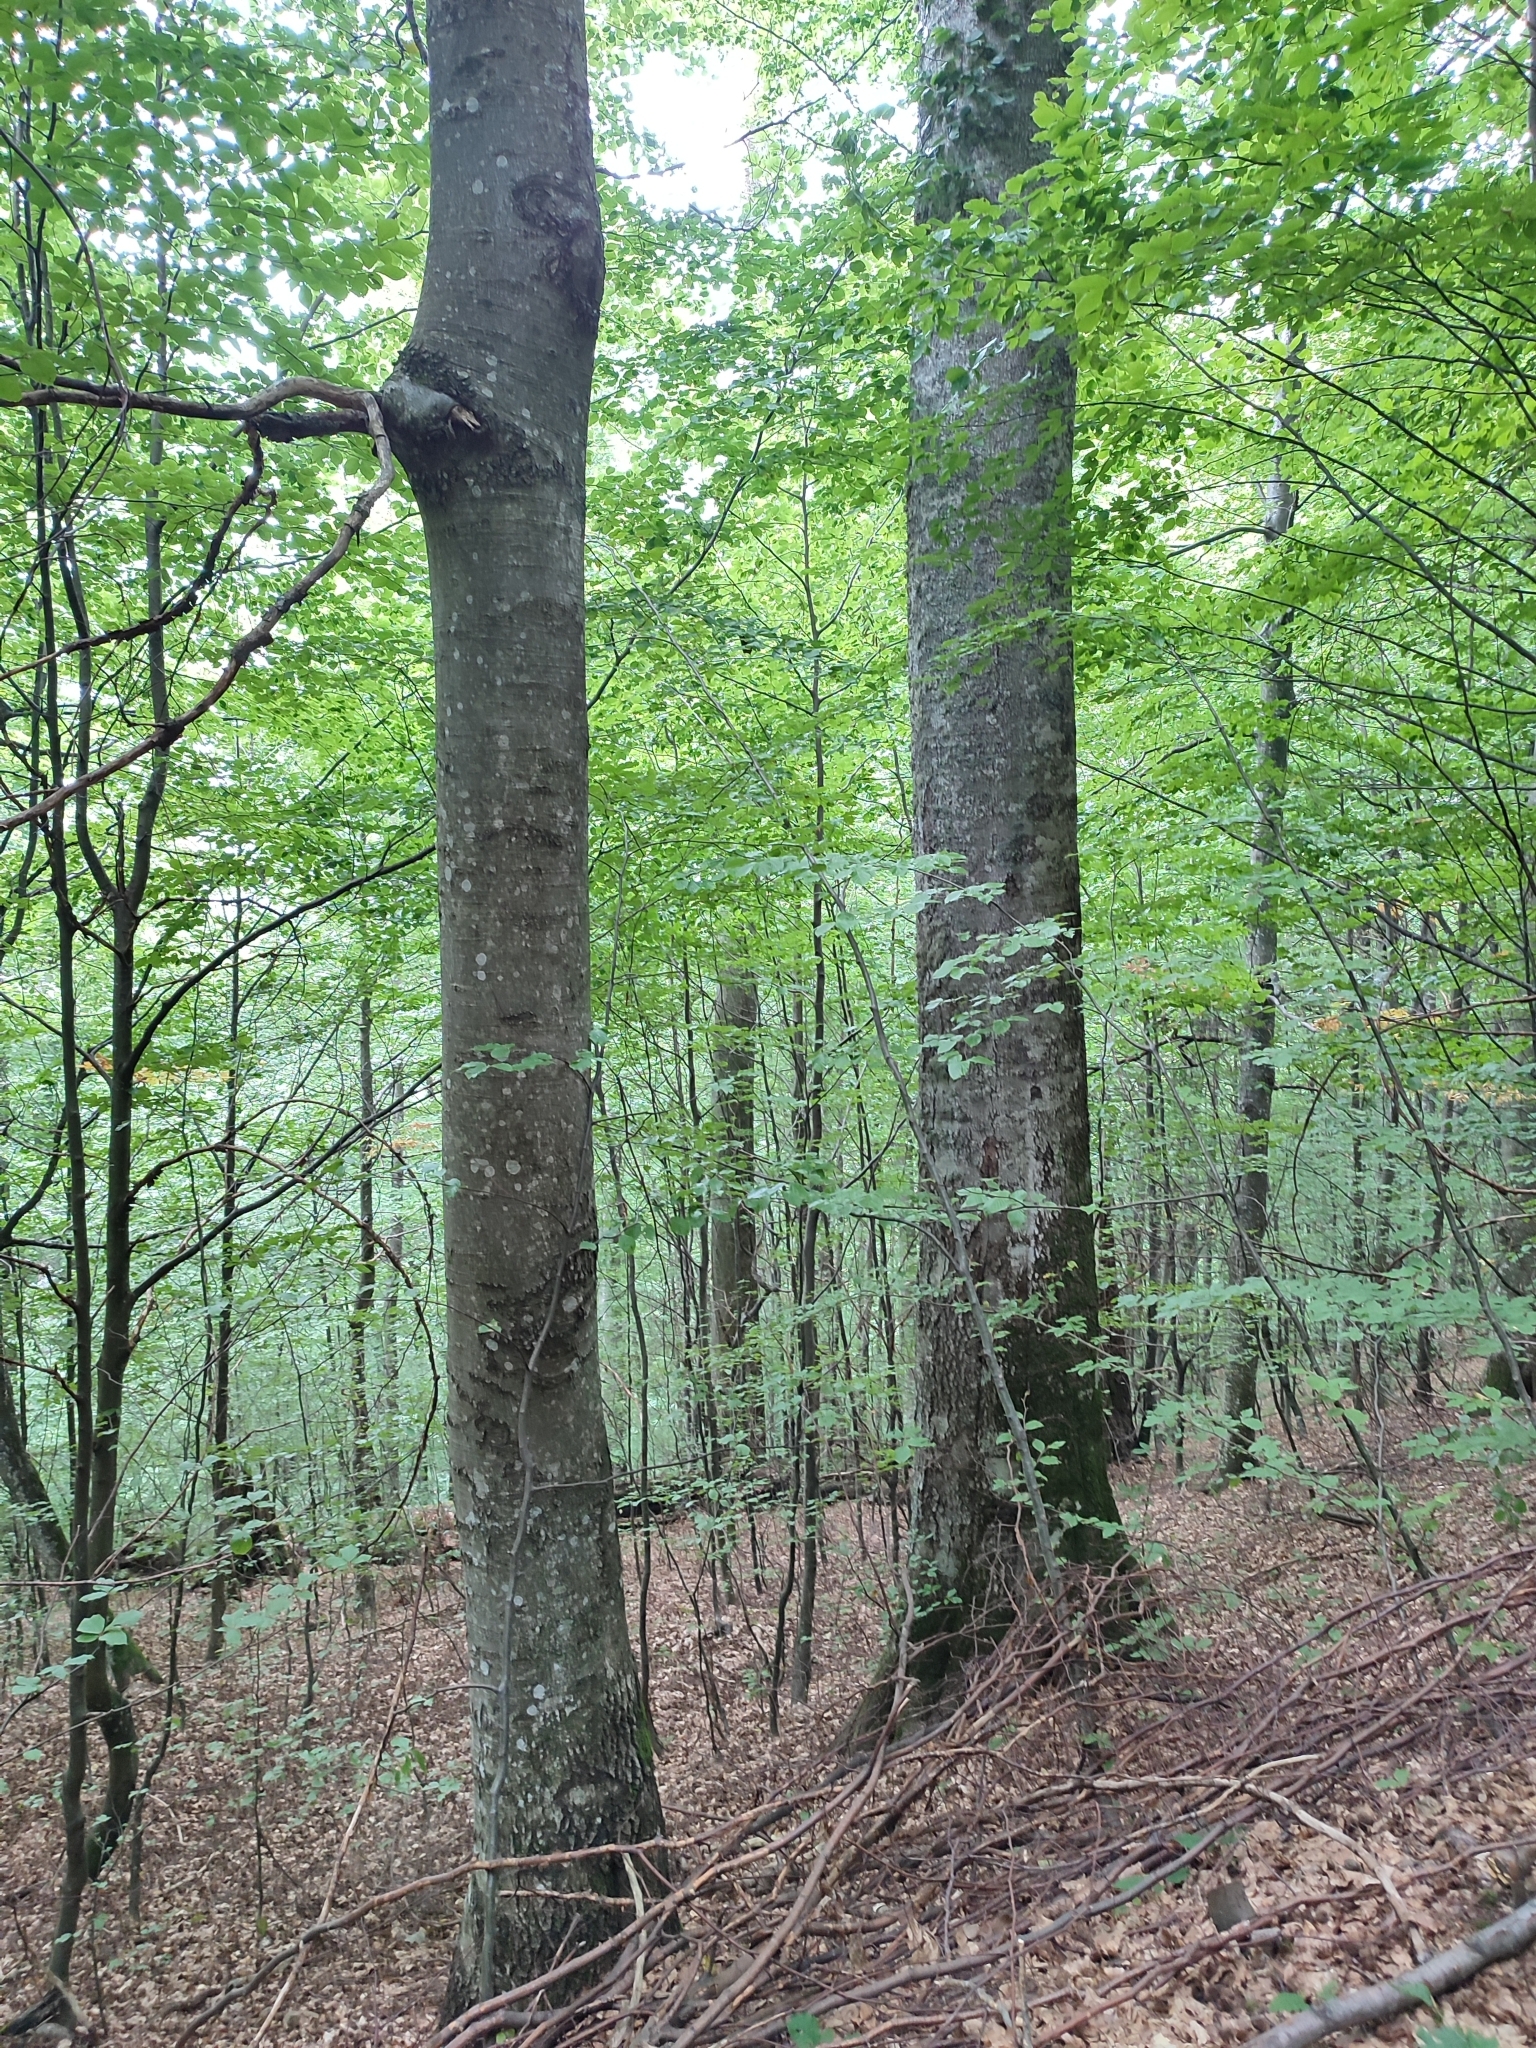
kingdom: Plantae
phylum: Tracheophyta
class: Magnoliopsida
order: Fagales
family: Fagaceae
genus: Fagus
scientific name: Fagus sylvatica
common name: Beech
